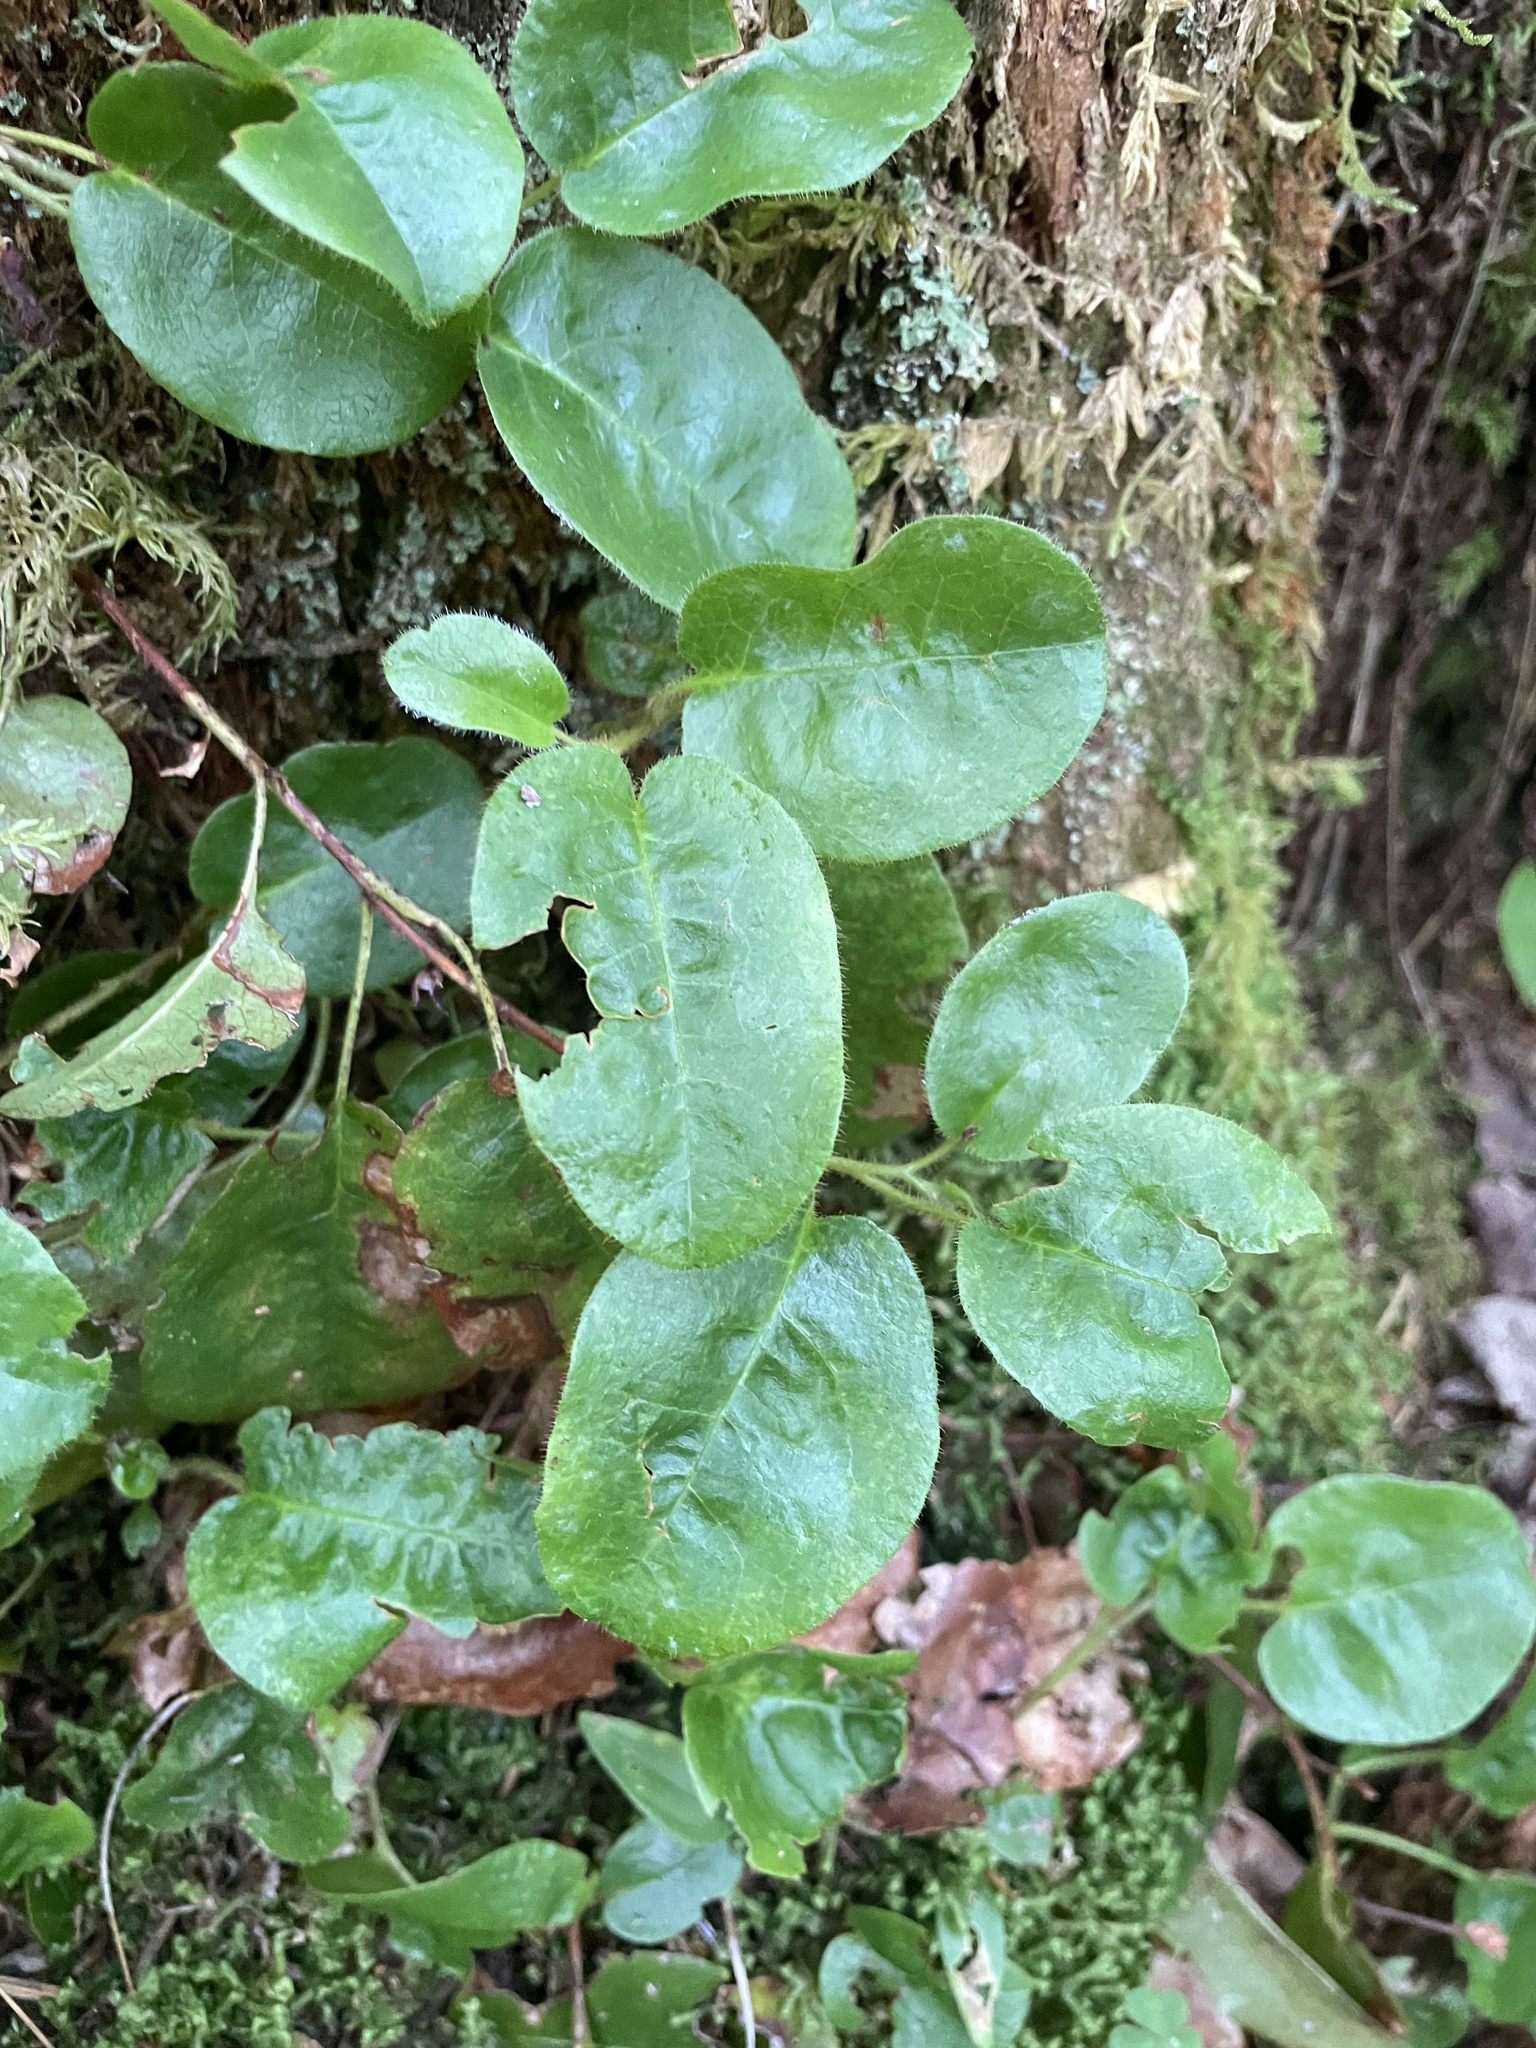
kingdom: Plantae
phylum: Tracheophyta
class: Magnoliopsida
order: Ericales
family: Ericaceae
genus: Epigaea
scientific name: Epigaea repens
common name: Gravelroot
